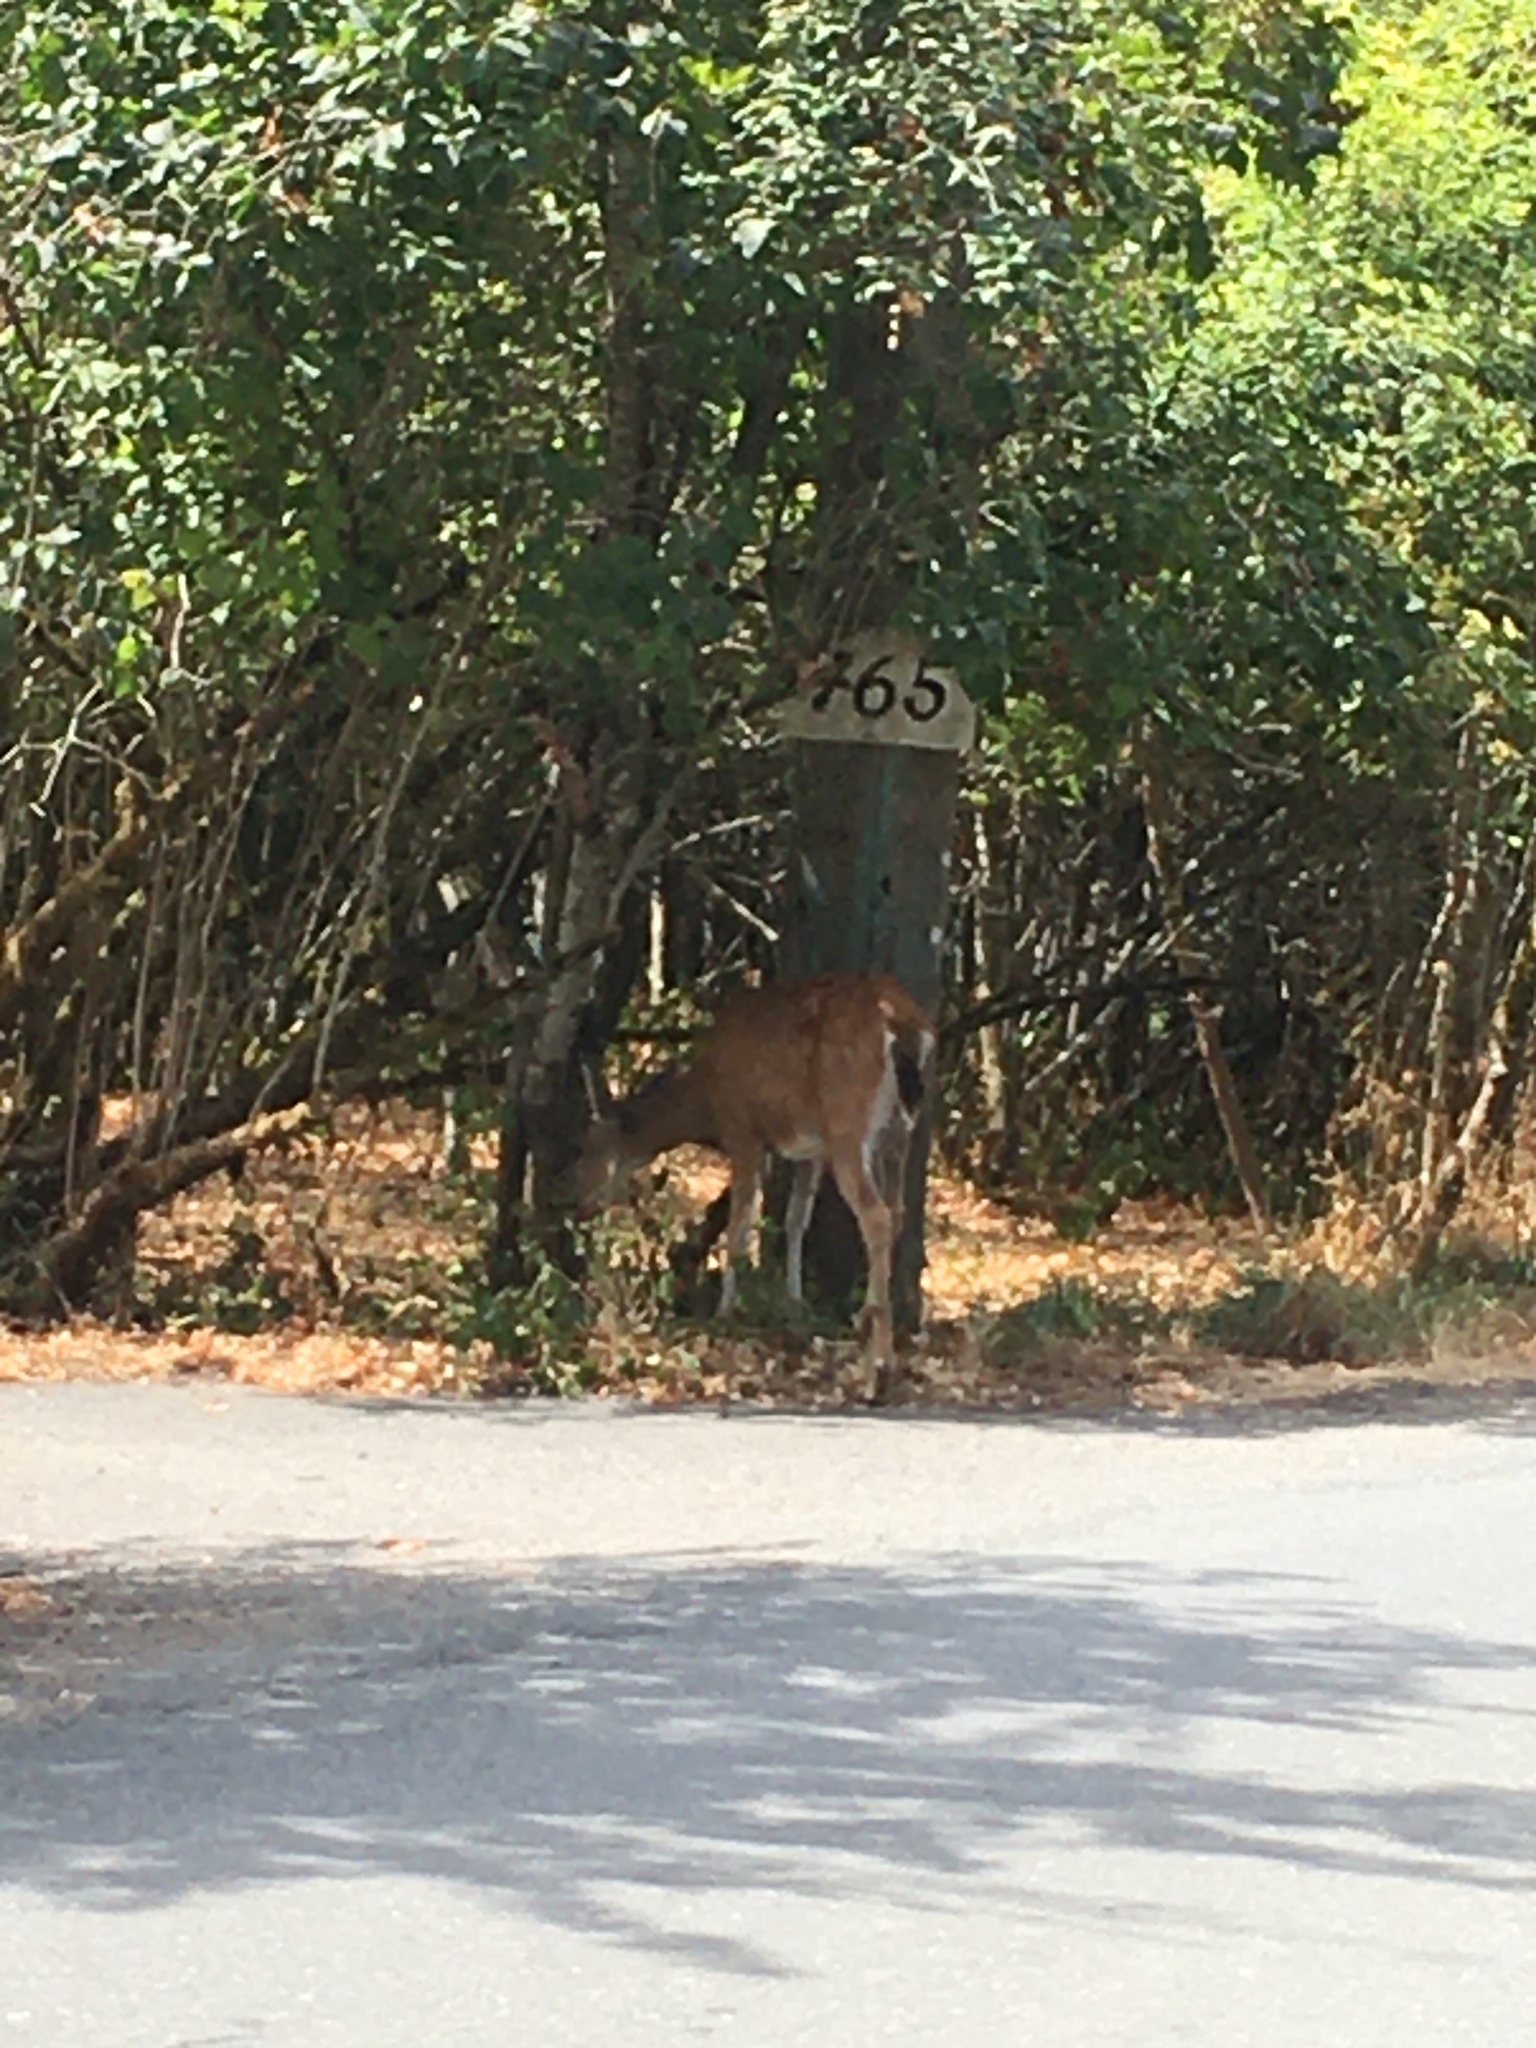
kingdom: Animalia
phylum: Chordata
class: Mammalia
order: Artiodactyla
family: Cervidae
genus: Odocoileus
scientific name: Odocoileus hemionus
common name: Mule deer
